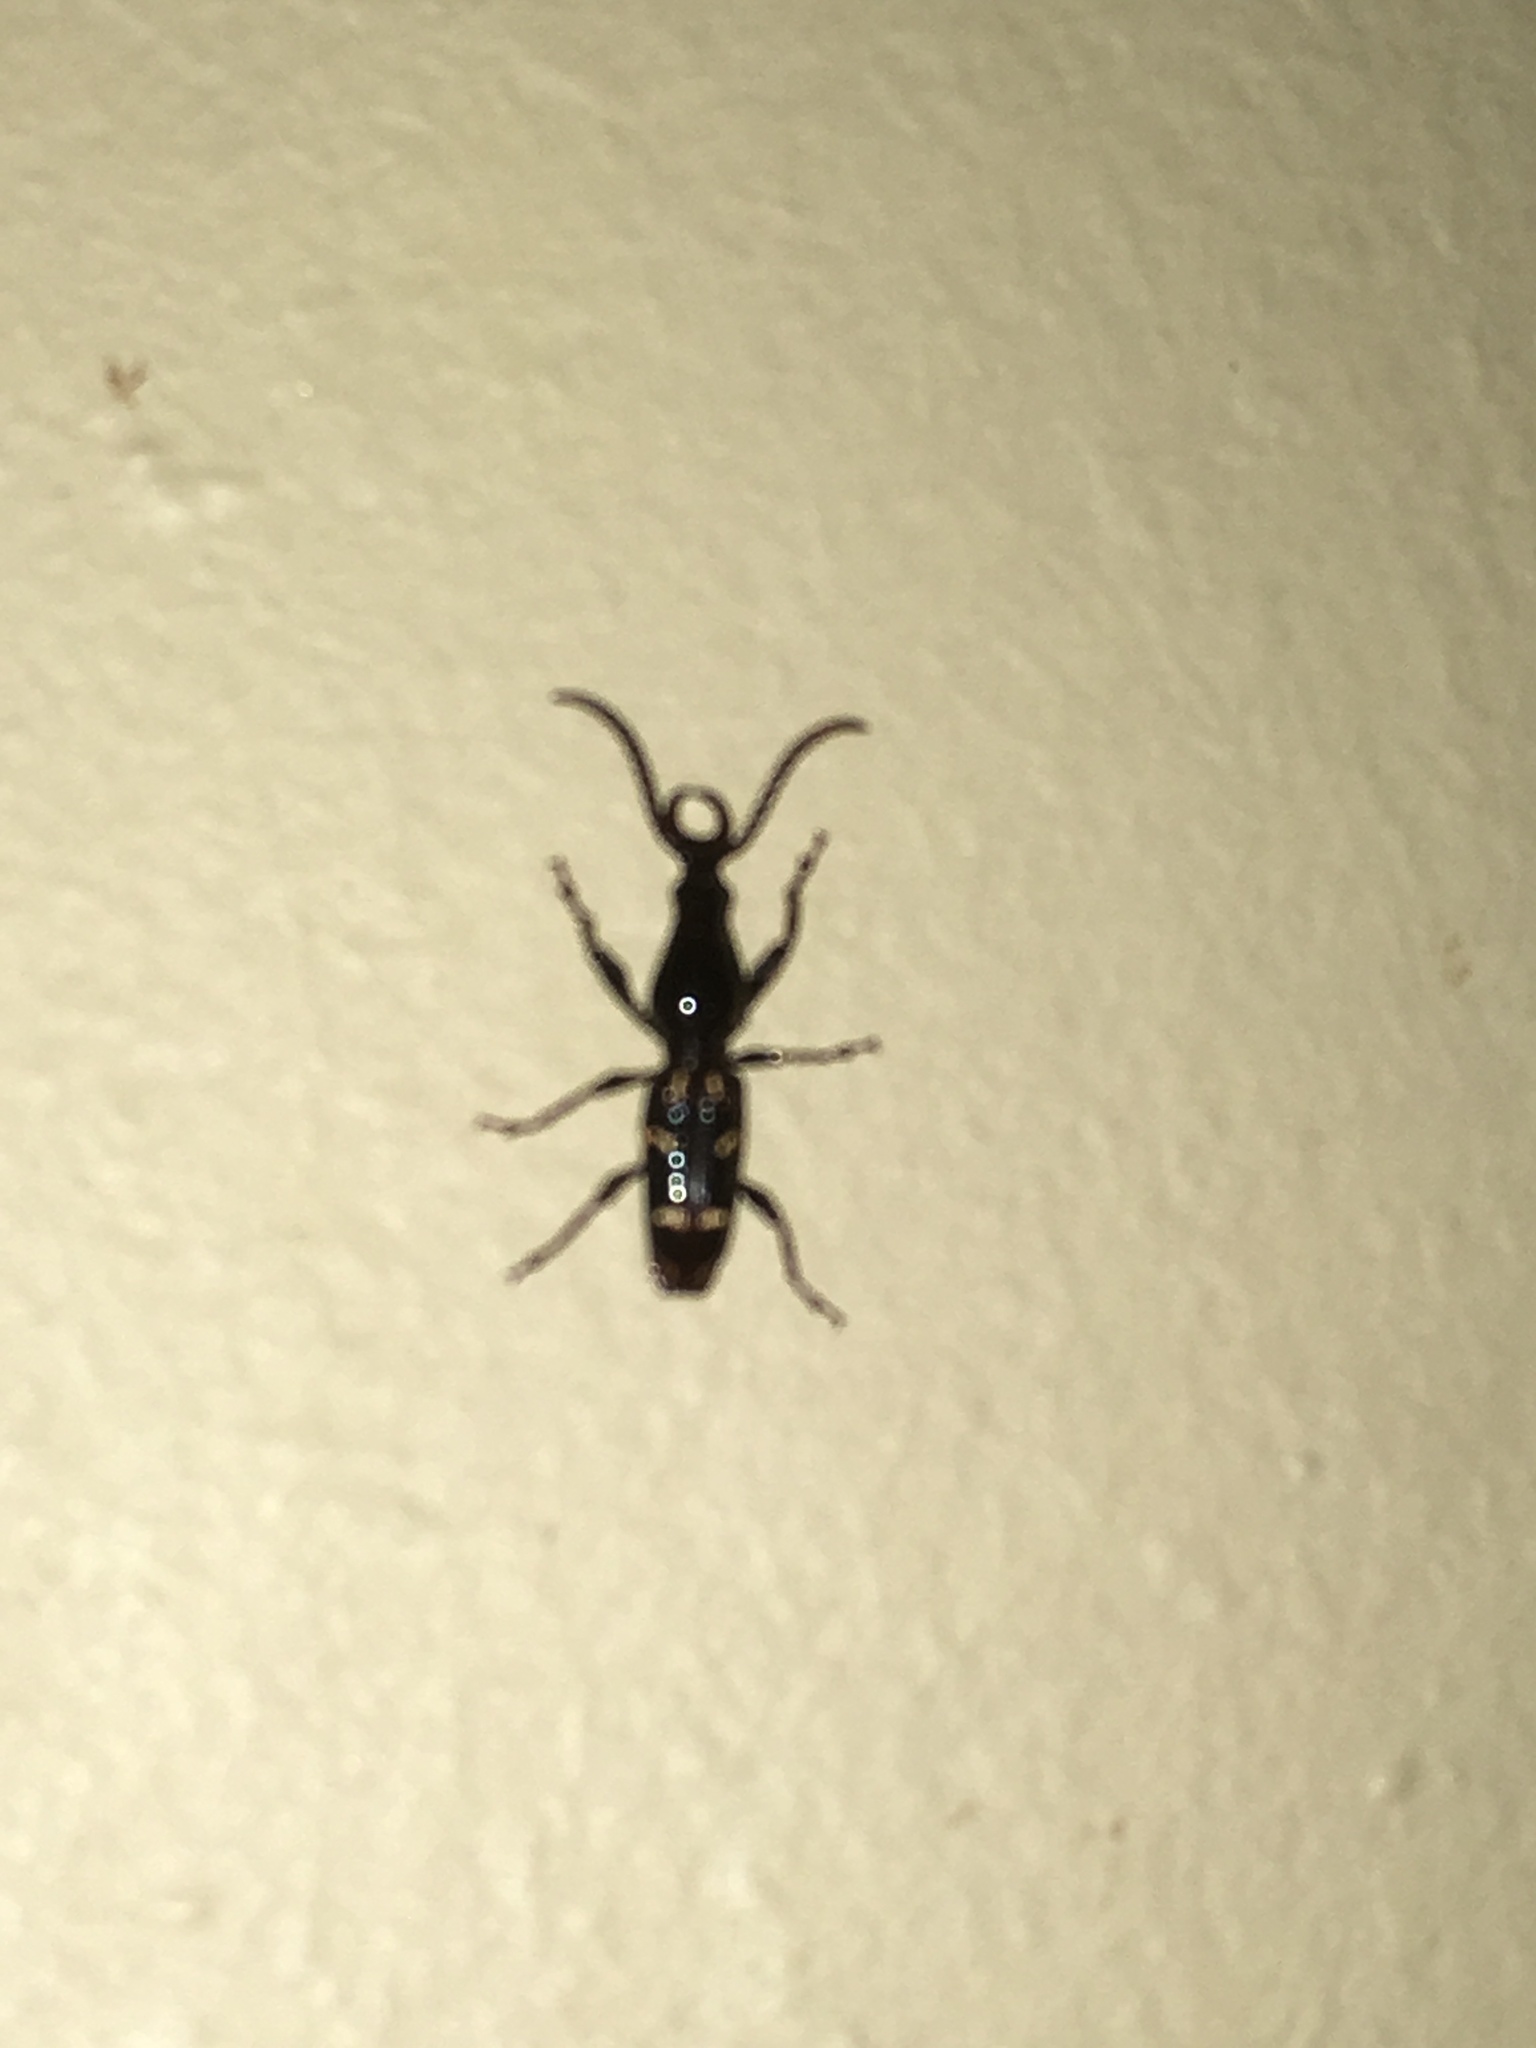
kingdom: Animalia
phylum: Arthropoda
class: Insecta
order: Coleoptera
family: Brentidae
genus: Orfilaia
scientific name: Orfilaia vulsellata
